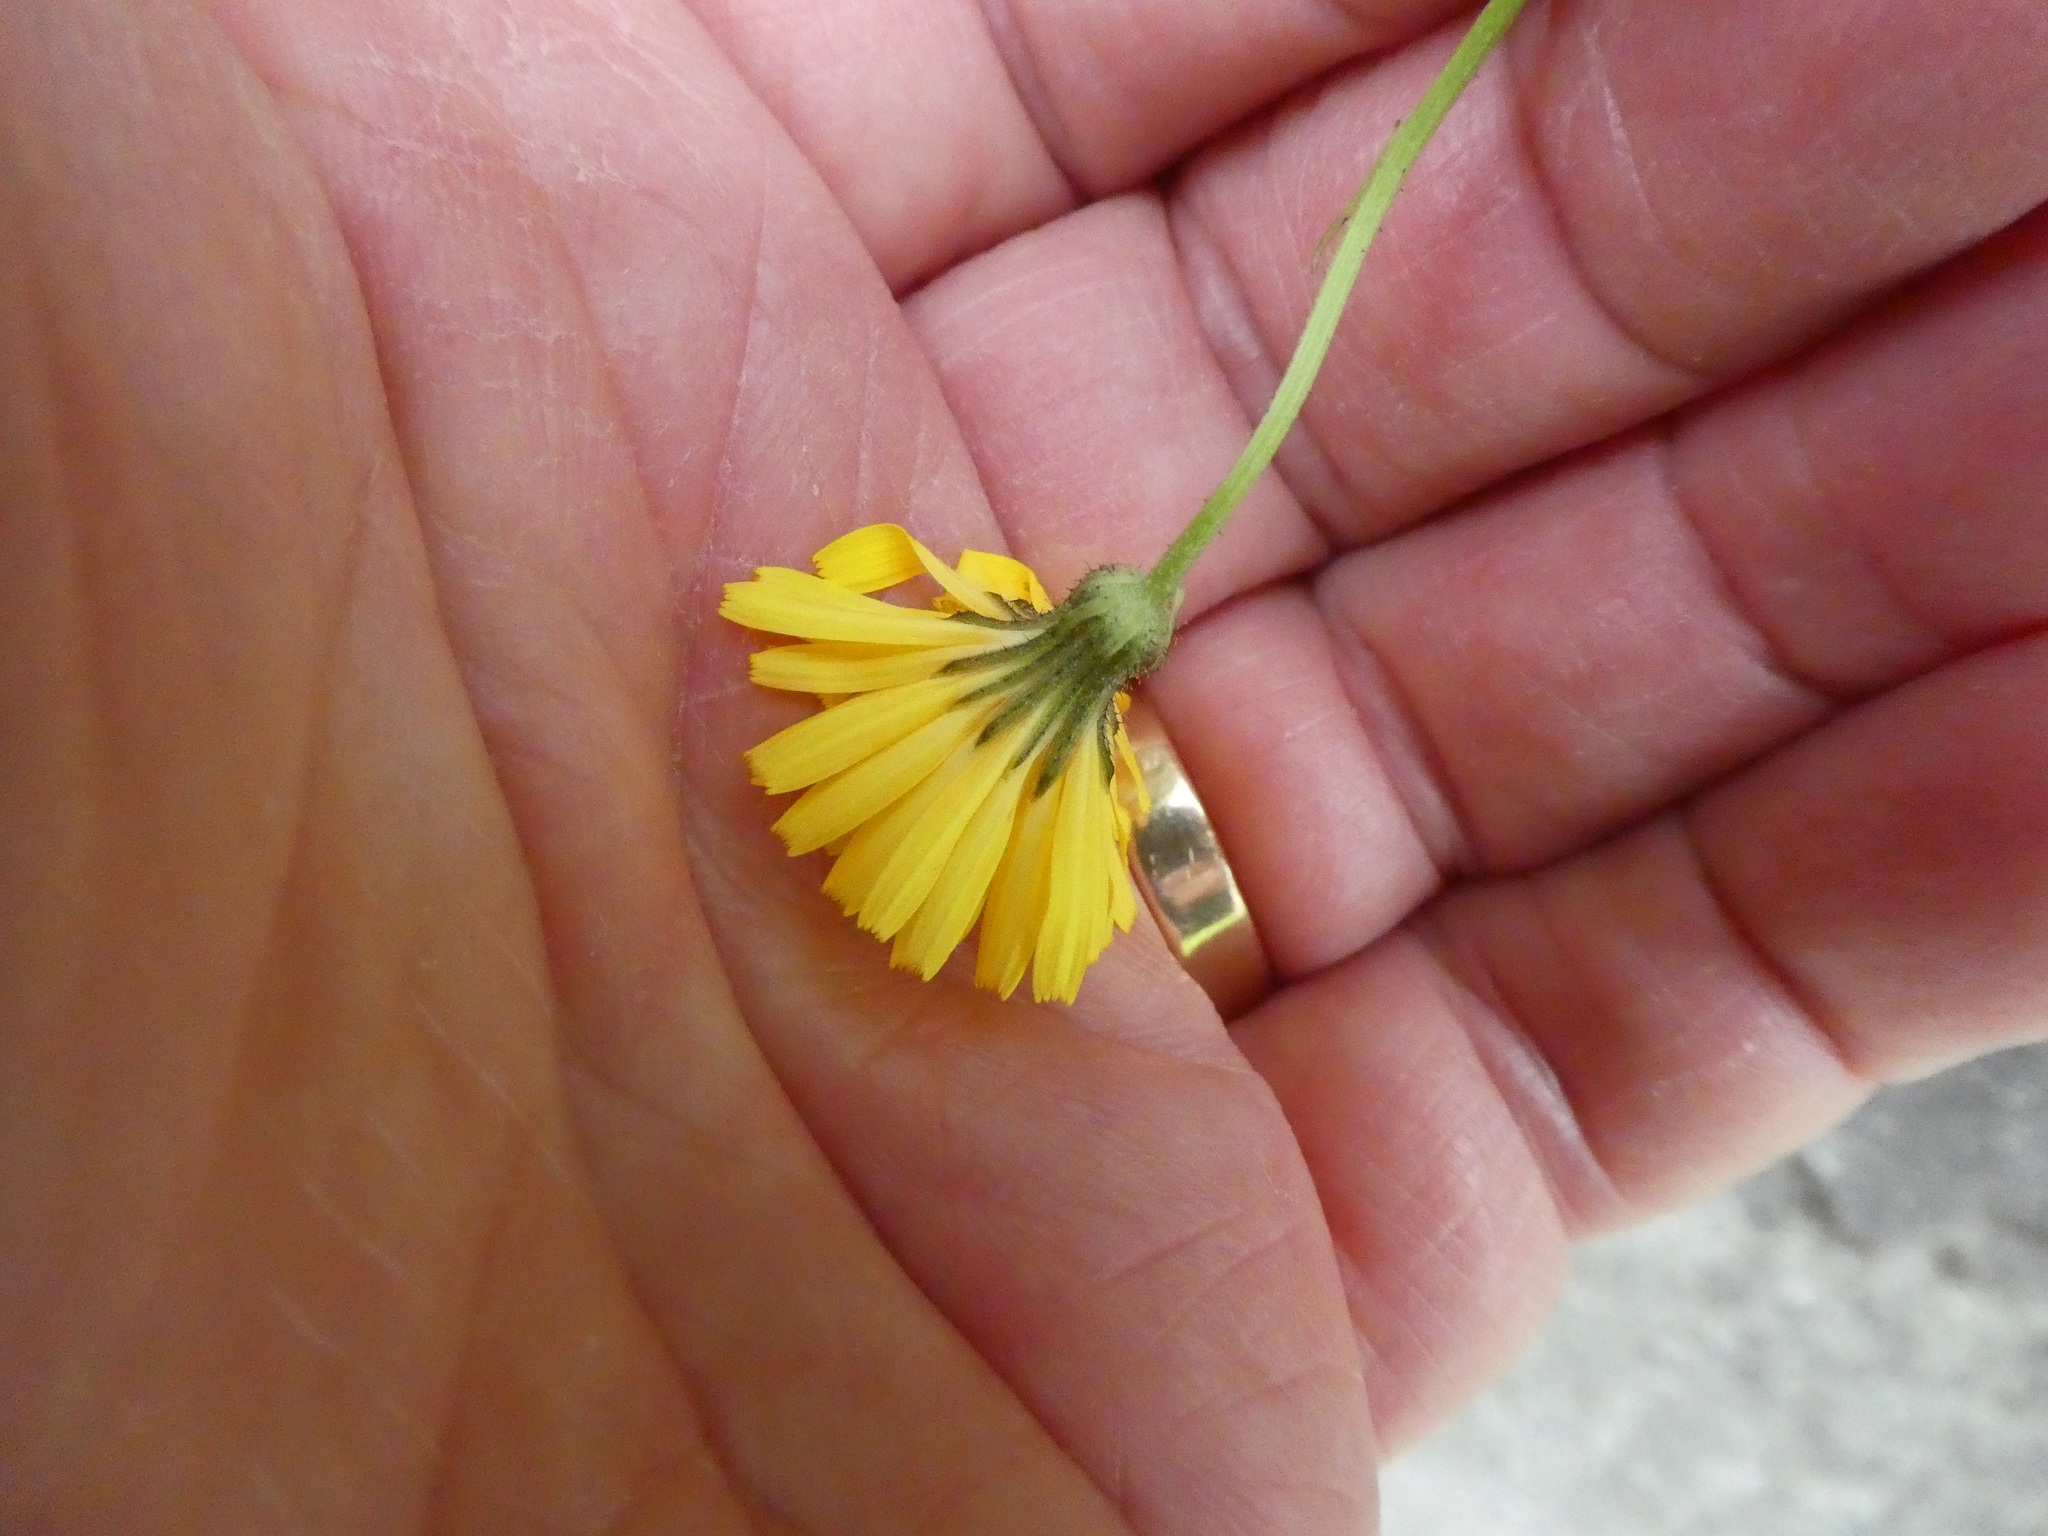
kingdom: Plantae
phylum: Tracheophyta
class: Magnoliopsida
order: Asterales
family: Asteraceae
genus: Crepis
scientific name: Crepis capillaris
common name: Smooth hawksbeard
